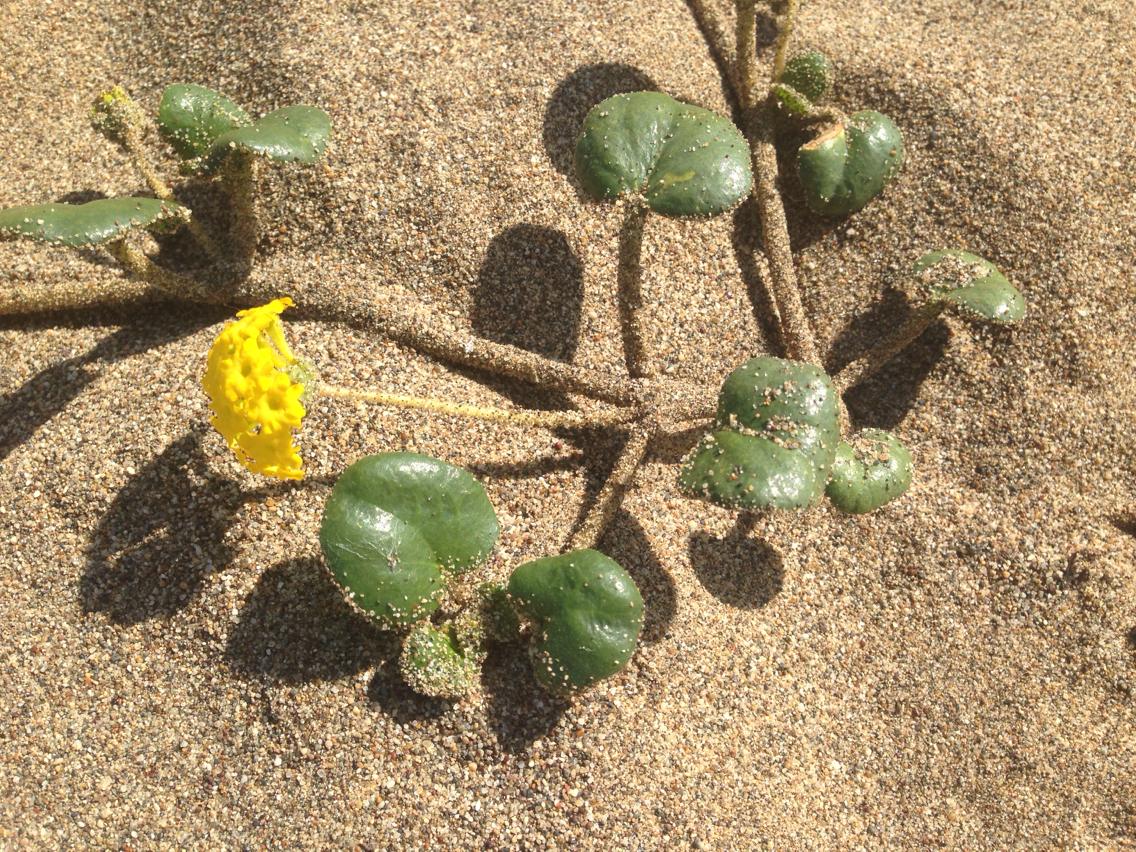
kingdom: Plantae
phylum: Tracheophyta
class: Magnoliopsida
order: Caryophyllales
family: Nyctaginaceae
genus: Abronia
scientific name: Abronia latifolia
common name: Yellow sand-verbena
